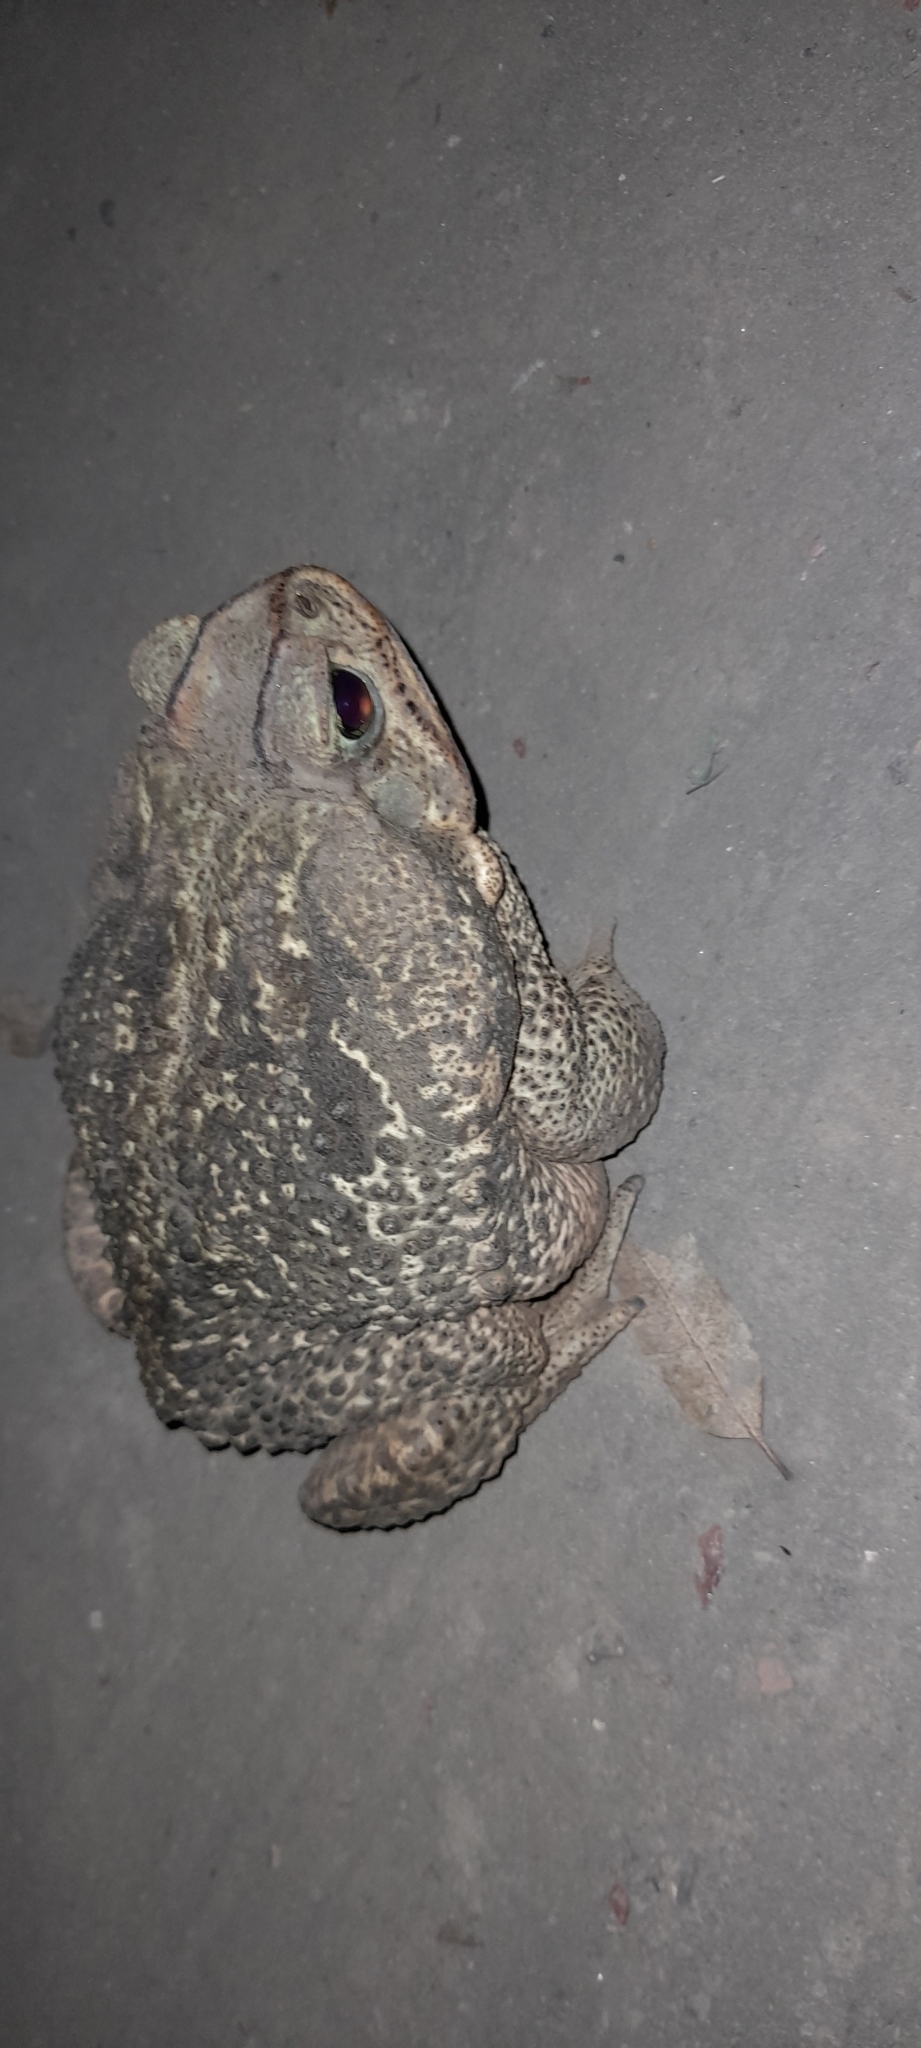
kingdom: Animalia
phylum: Chordata
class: Amphibia
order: Anura
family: Bufonidae
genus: Rhinella
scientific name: Rhinella diptycha
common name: Cope's toad
